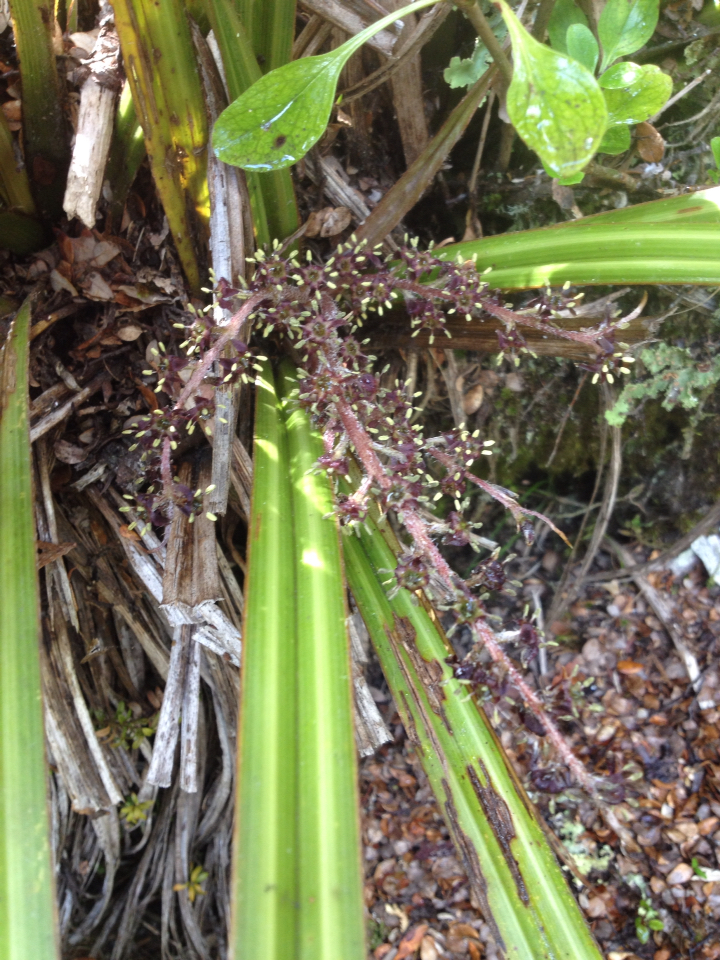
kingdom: Plantae
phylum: Tracheophyta
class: Liliopsida
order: Asparagales
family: Asteliaceae
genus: Astelia
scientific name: Astelia nervosa
